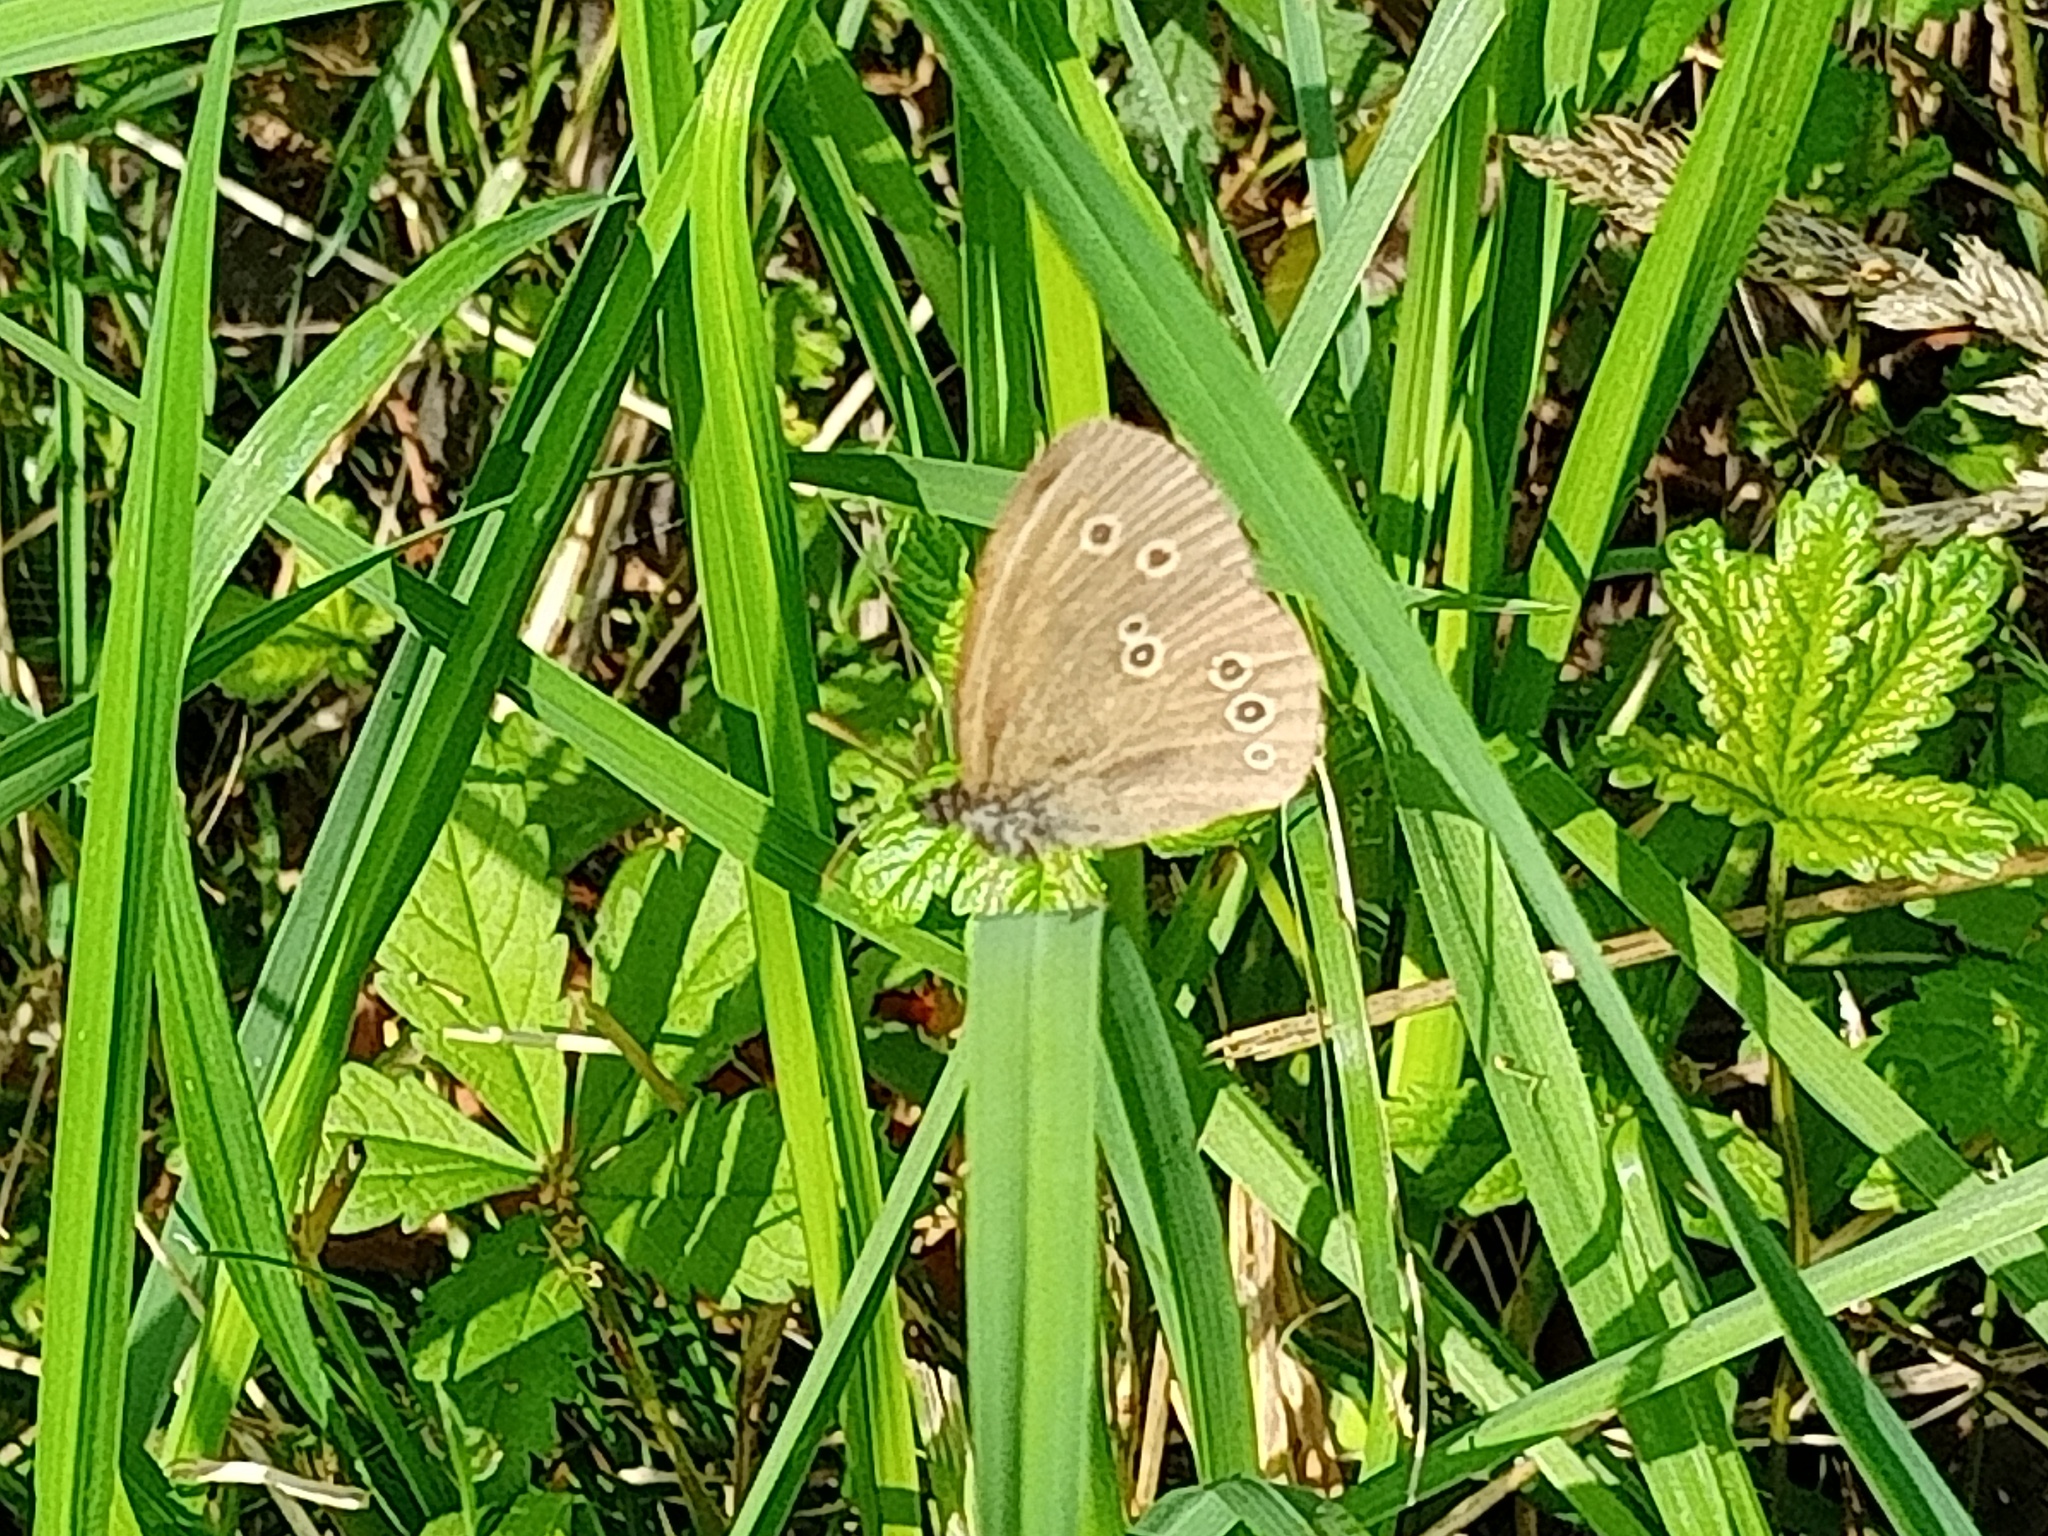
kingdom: Animalia
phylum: Arthropoda
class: Insecta
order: Lepidoptera
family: Nymphalidae
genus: Aphantopus
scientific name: Aphantopus hyperantus
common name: Ringlet
